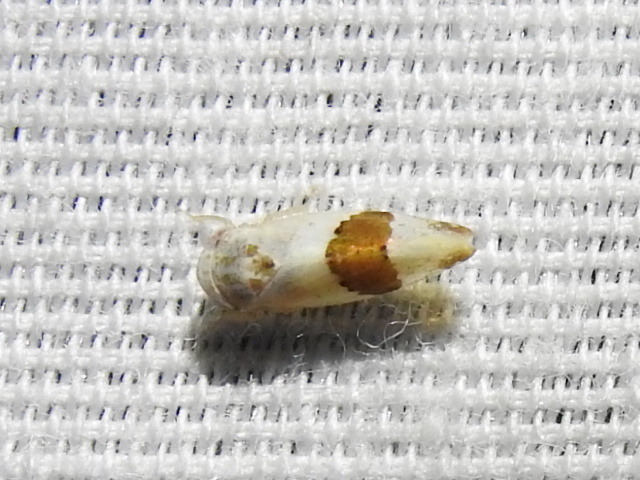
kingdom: Animalia
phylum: Arthropoda
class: Insecta
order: Hemiptera
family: Cicadellidae
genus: Norvellina
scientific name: Norvellina seminuda
